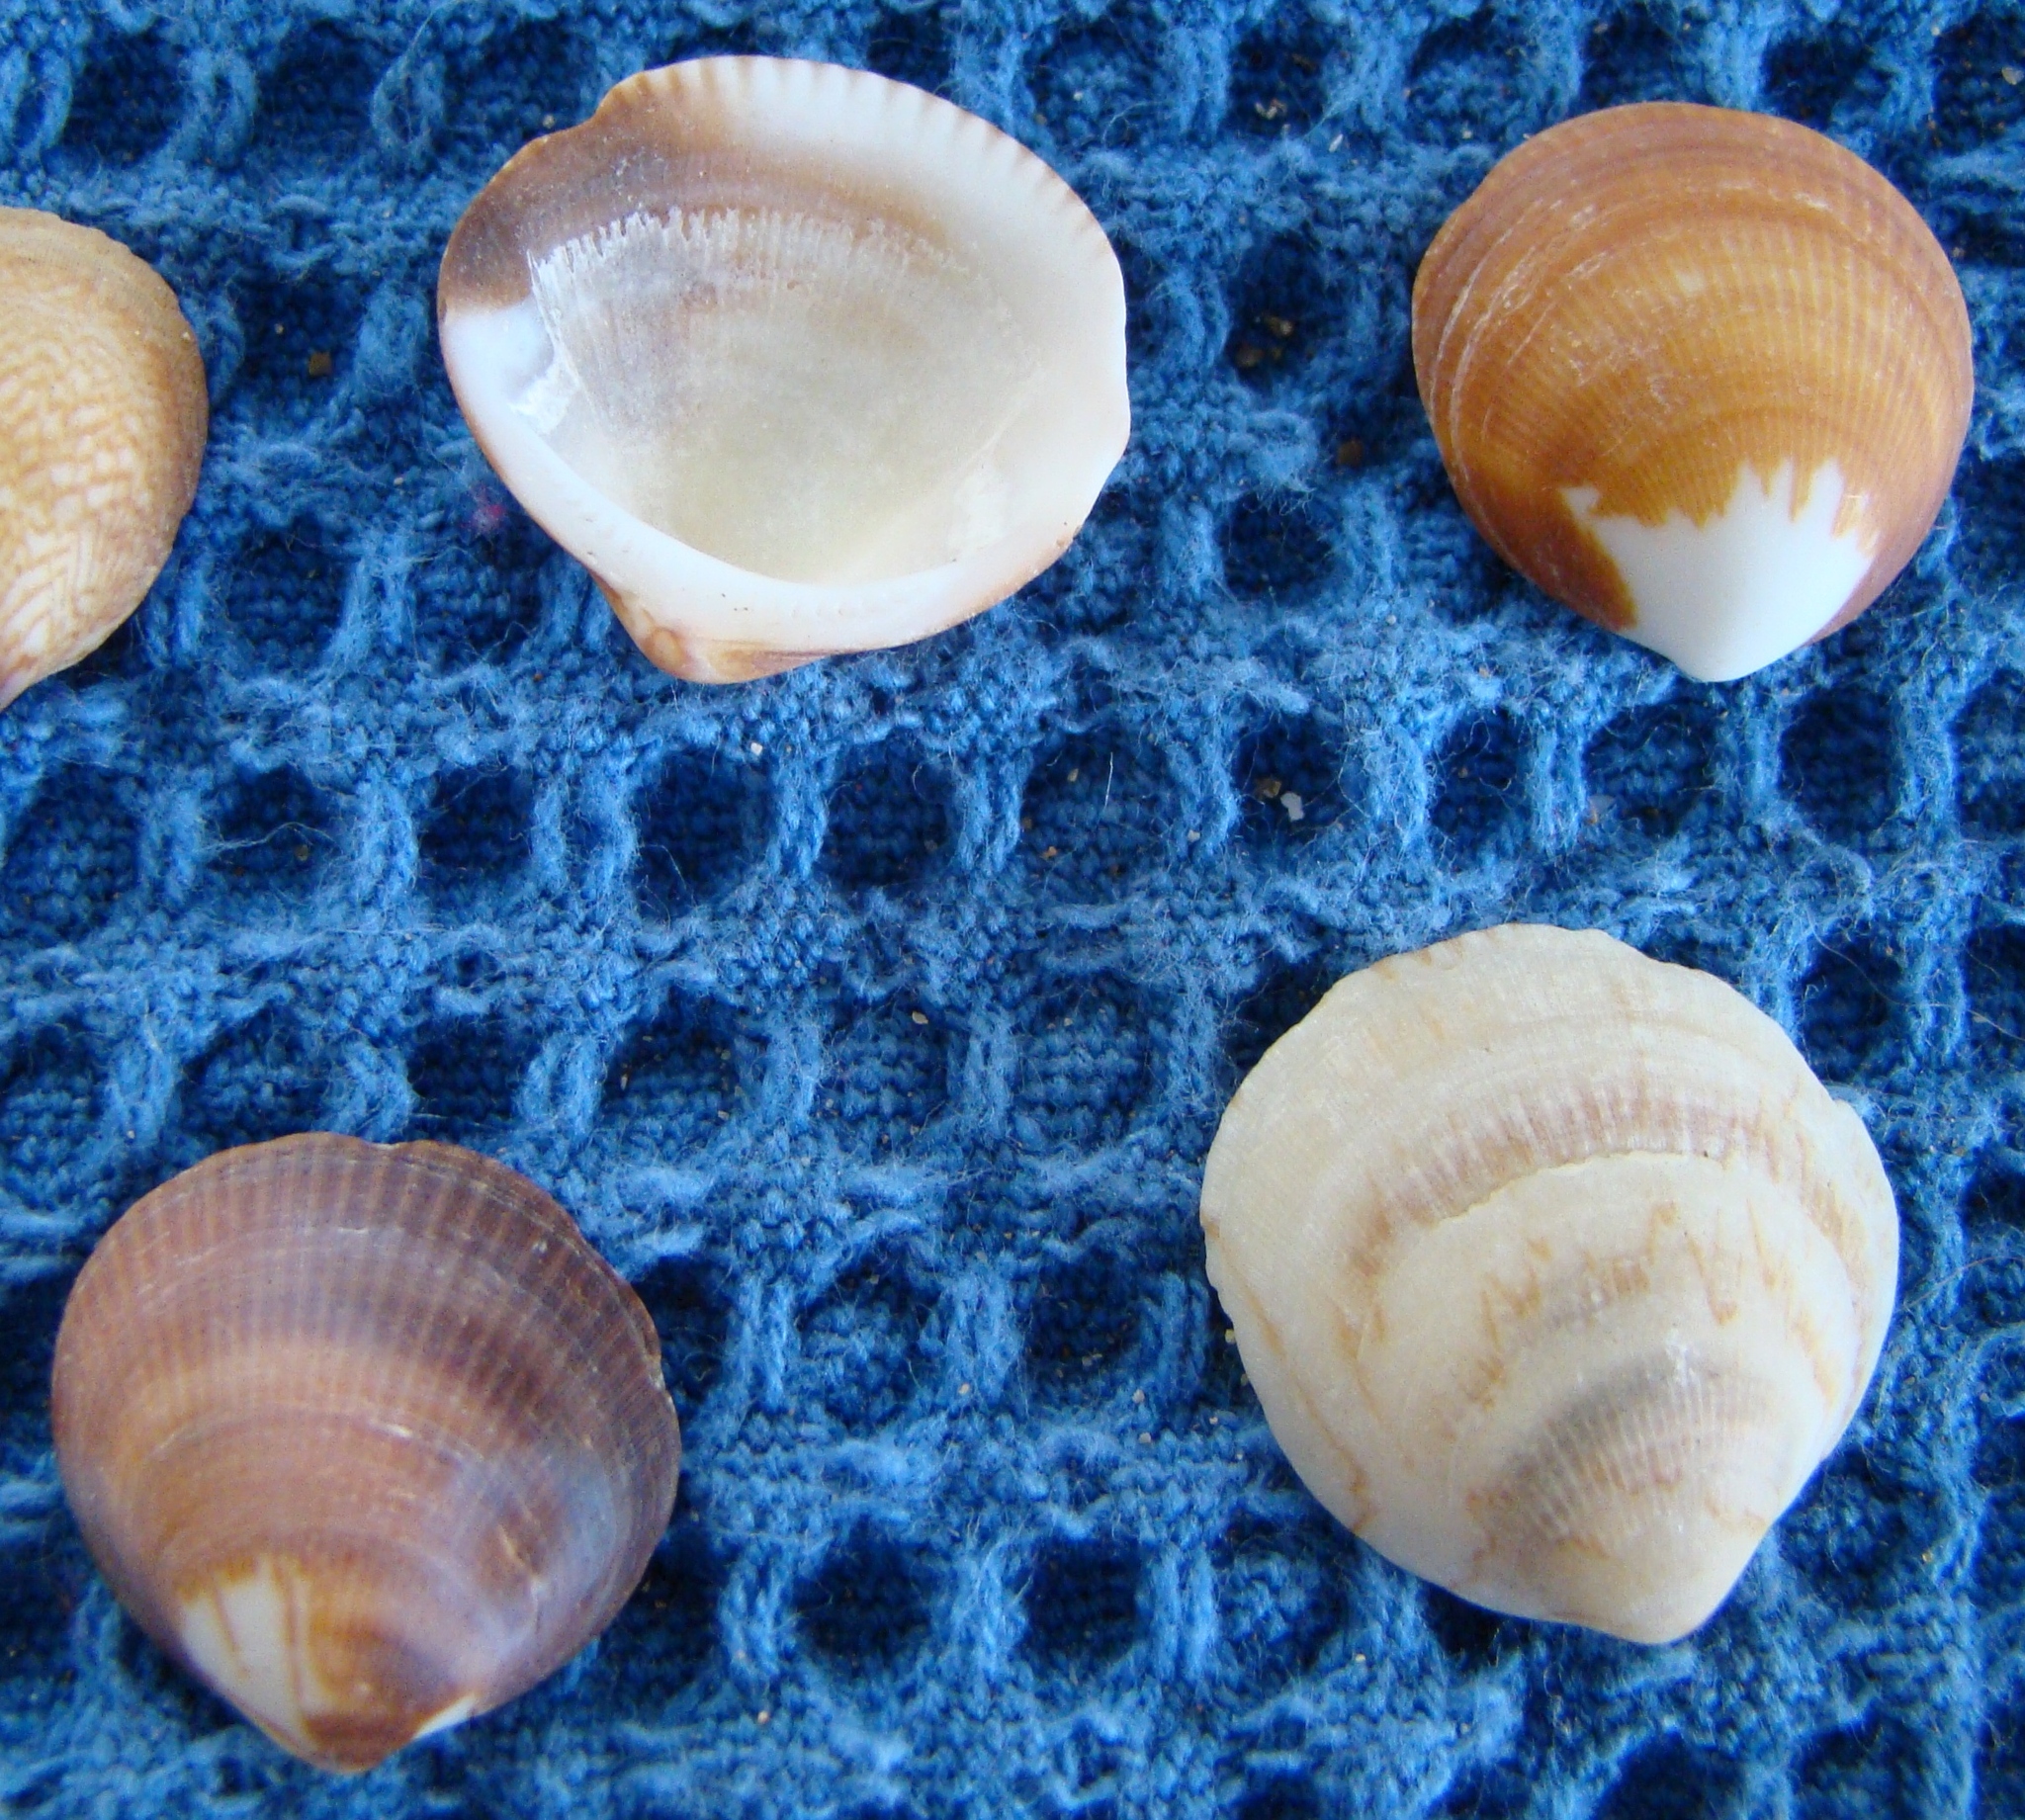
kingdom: Animalia
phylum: Mollusca
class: Bivalvia
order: Arcida
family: Glycymerididae
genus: Glycymeris
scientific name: Glycymeris modesta
